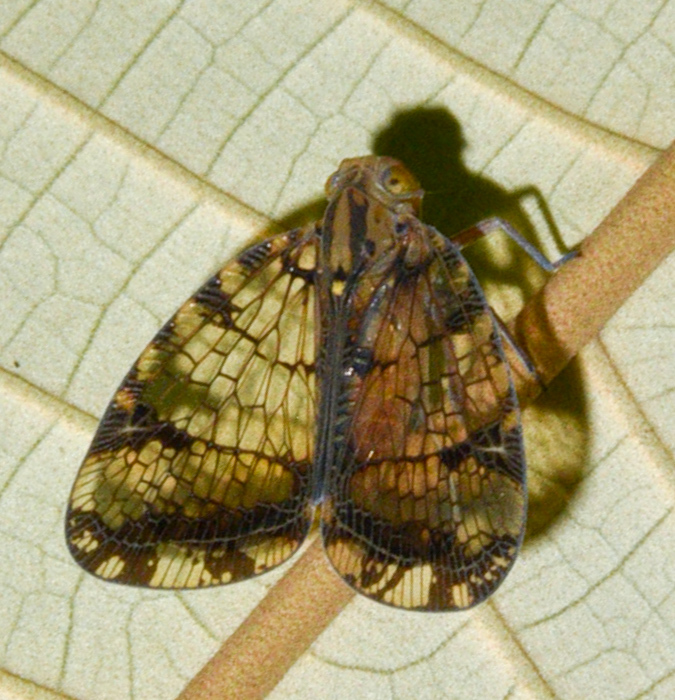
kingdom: Animalia
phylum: Arthropoda
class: Insecta
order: Hemiptera
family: Nogodinidae
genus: Biolleyana
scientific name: Biolleyana pictifrons
